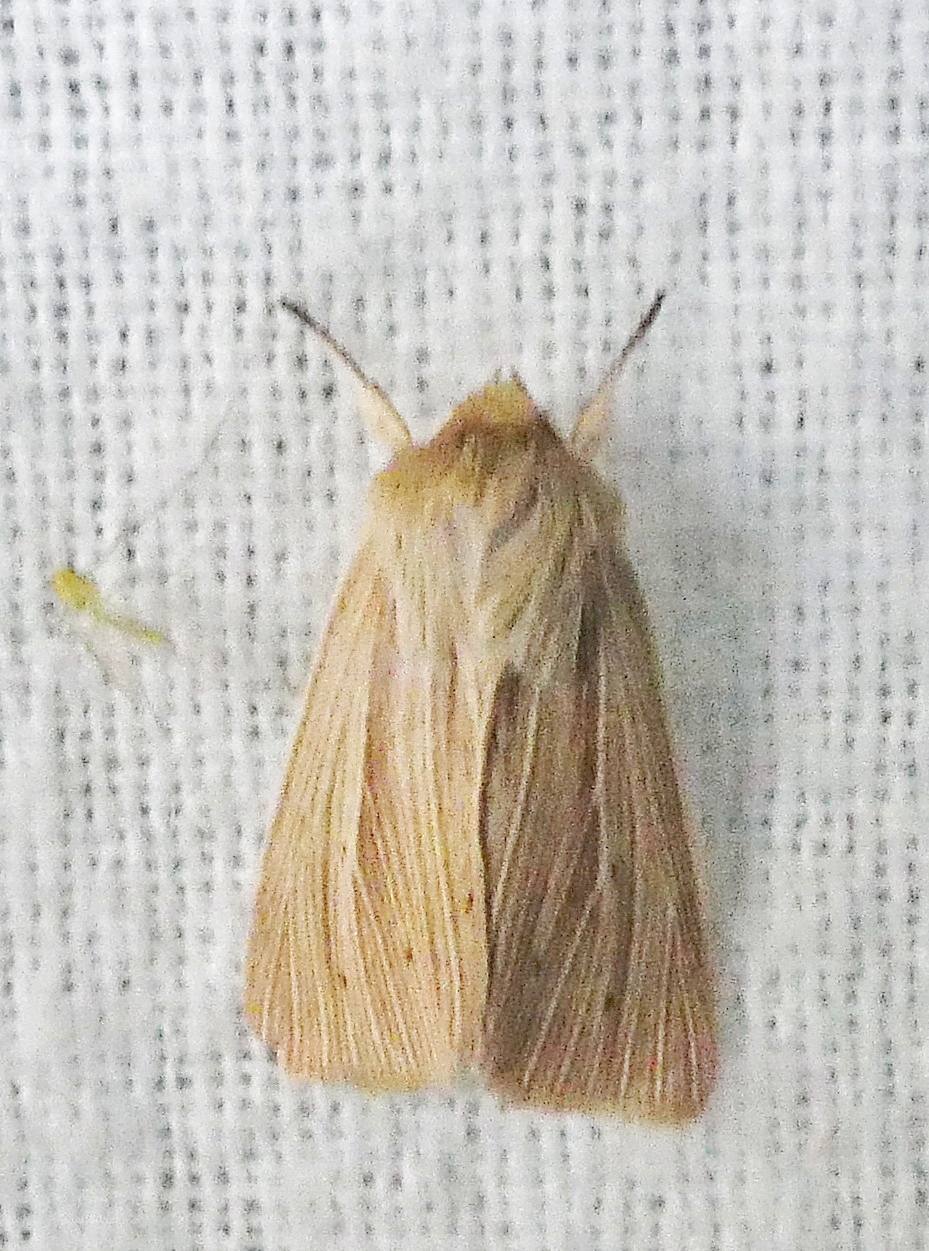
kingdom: Animalia
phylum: Arthropoda
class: Insecta
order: Lepidoptera
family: Noctuidae
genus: Mythimna
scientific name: Mythimna oxygala
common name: Lesser wainscot
